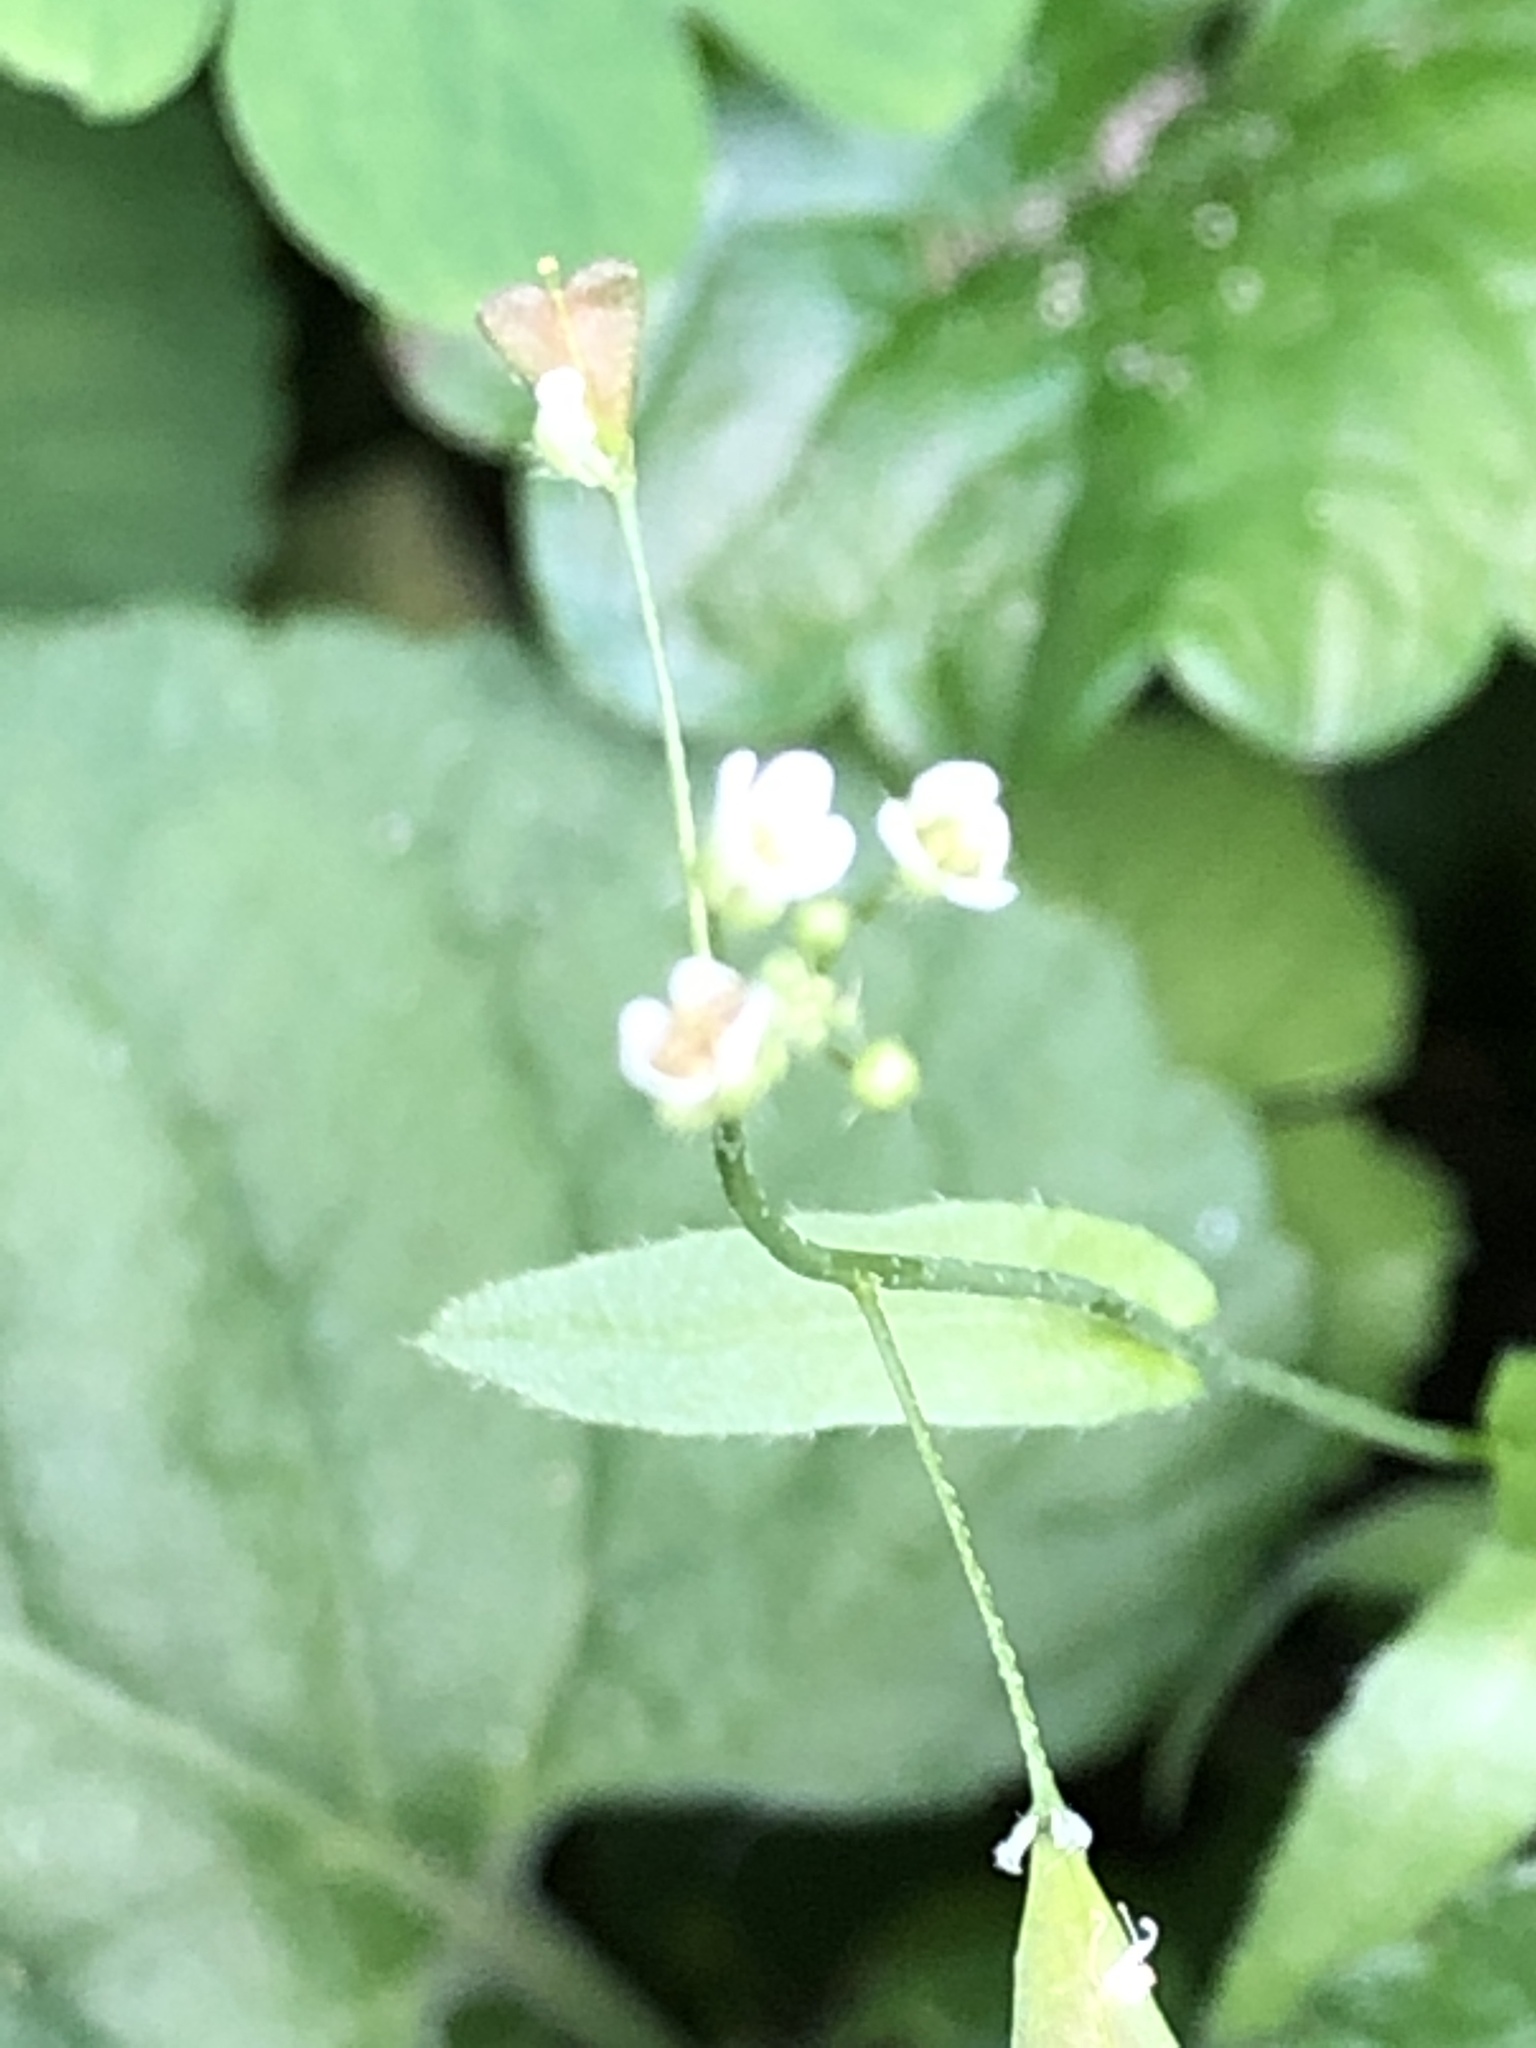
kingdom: Plantae
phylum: Tracheophyta
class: Magnoliopsida
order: Brassicales
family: Brassicaceae
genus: Capsella
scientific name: Capsella bursa-pastoris
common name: Shepherd's purse
